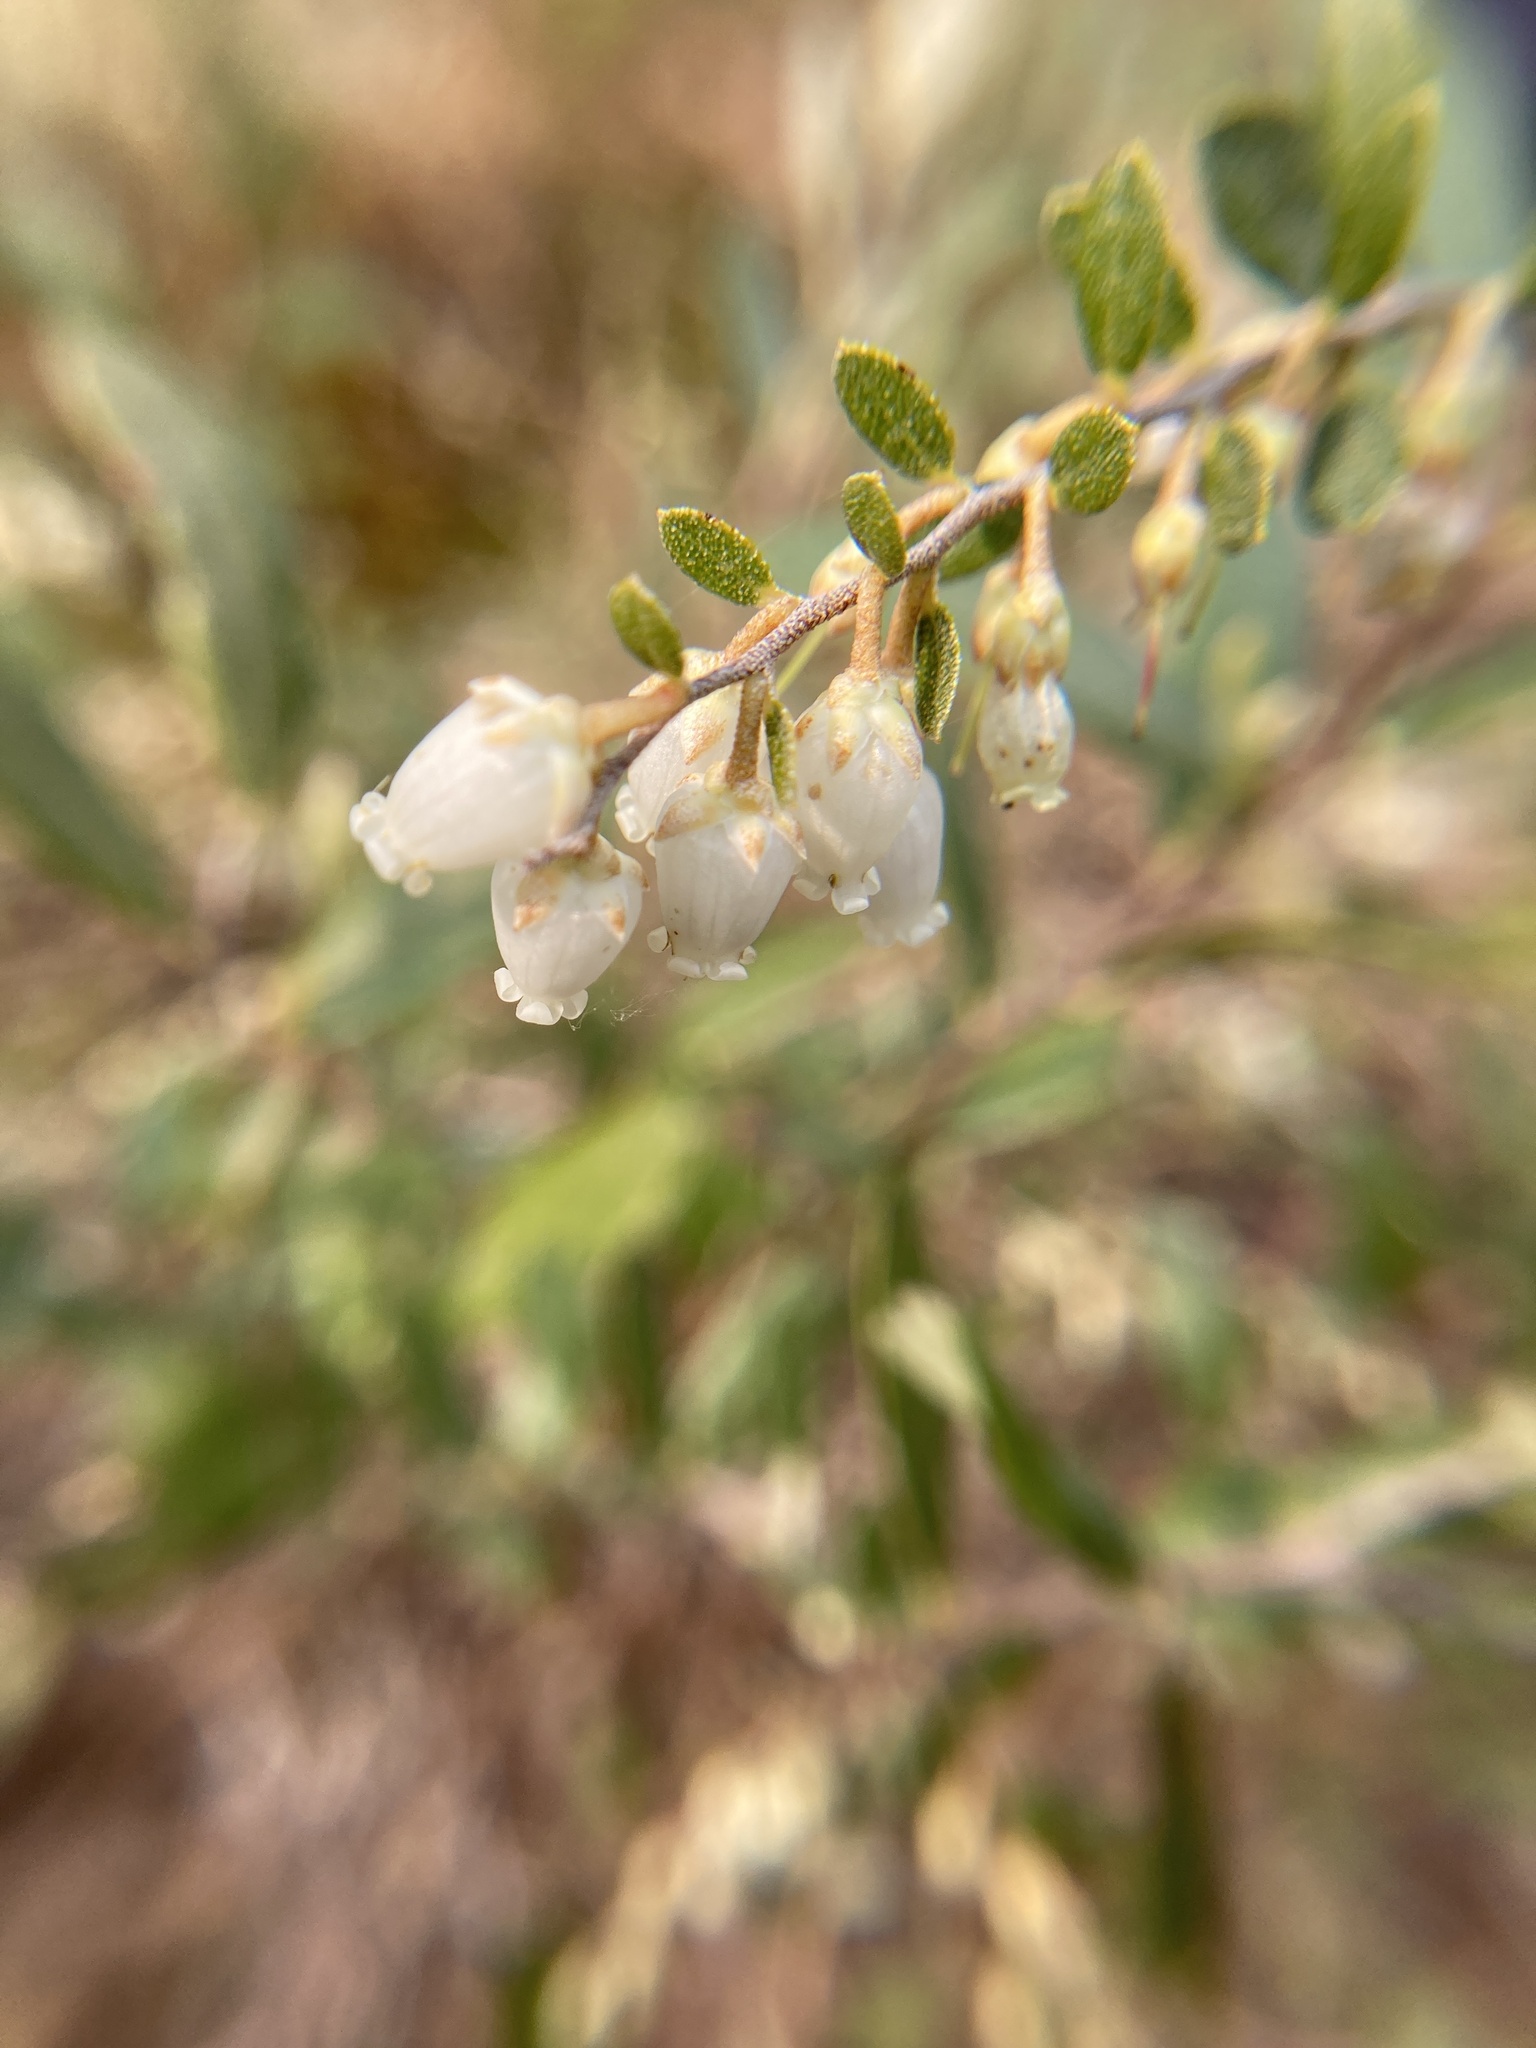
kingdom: Plantae
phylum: Tracheophyta
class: Magnoliopsida
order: Ericales
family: Ericaceae
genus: Chamaedaphne
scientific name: Chamaedaphne calyculata
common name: Leatherleaf
